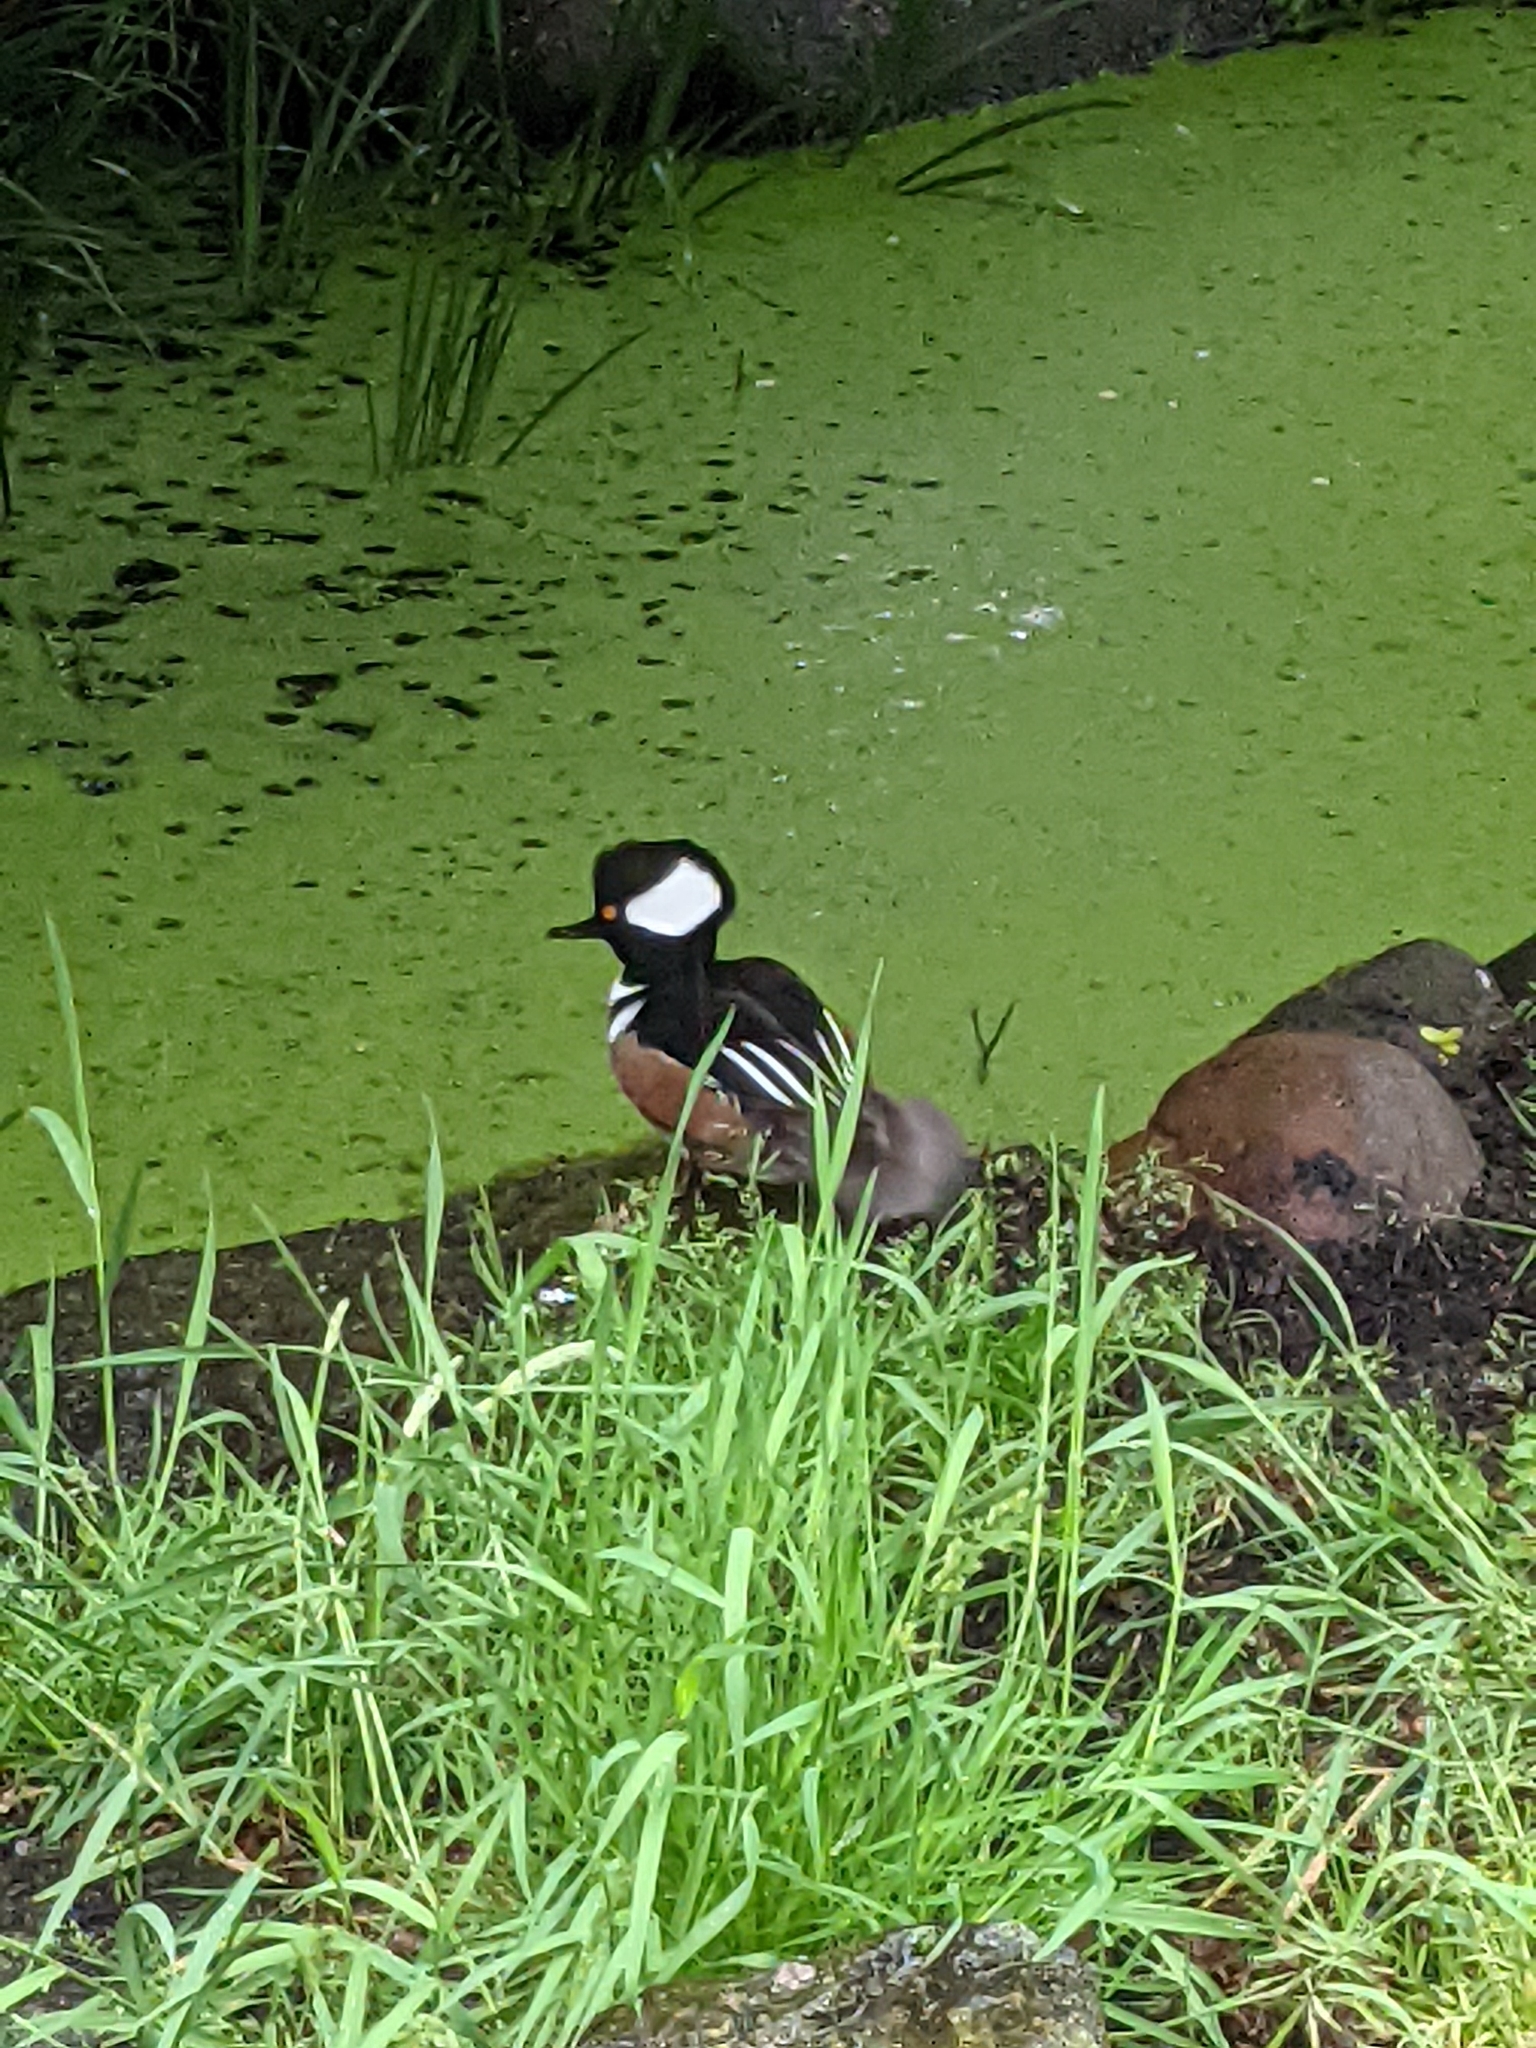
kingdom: Animalia
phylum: Chordata
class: Aves
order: Anseriformes
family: Anatidae
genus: Lophodytes
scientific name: Lophodytes cucullatus
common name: Hooded merganser
